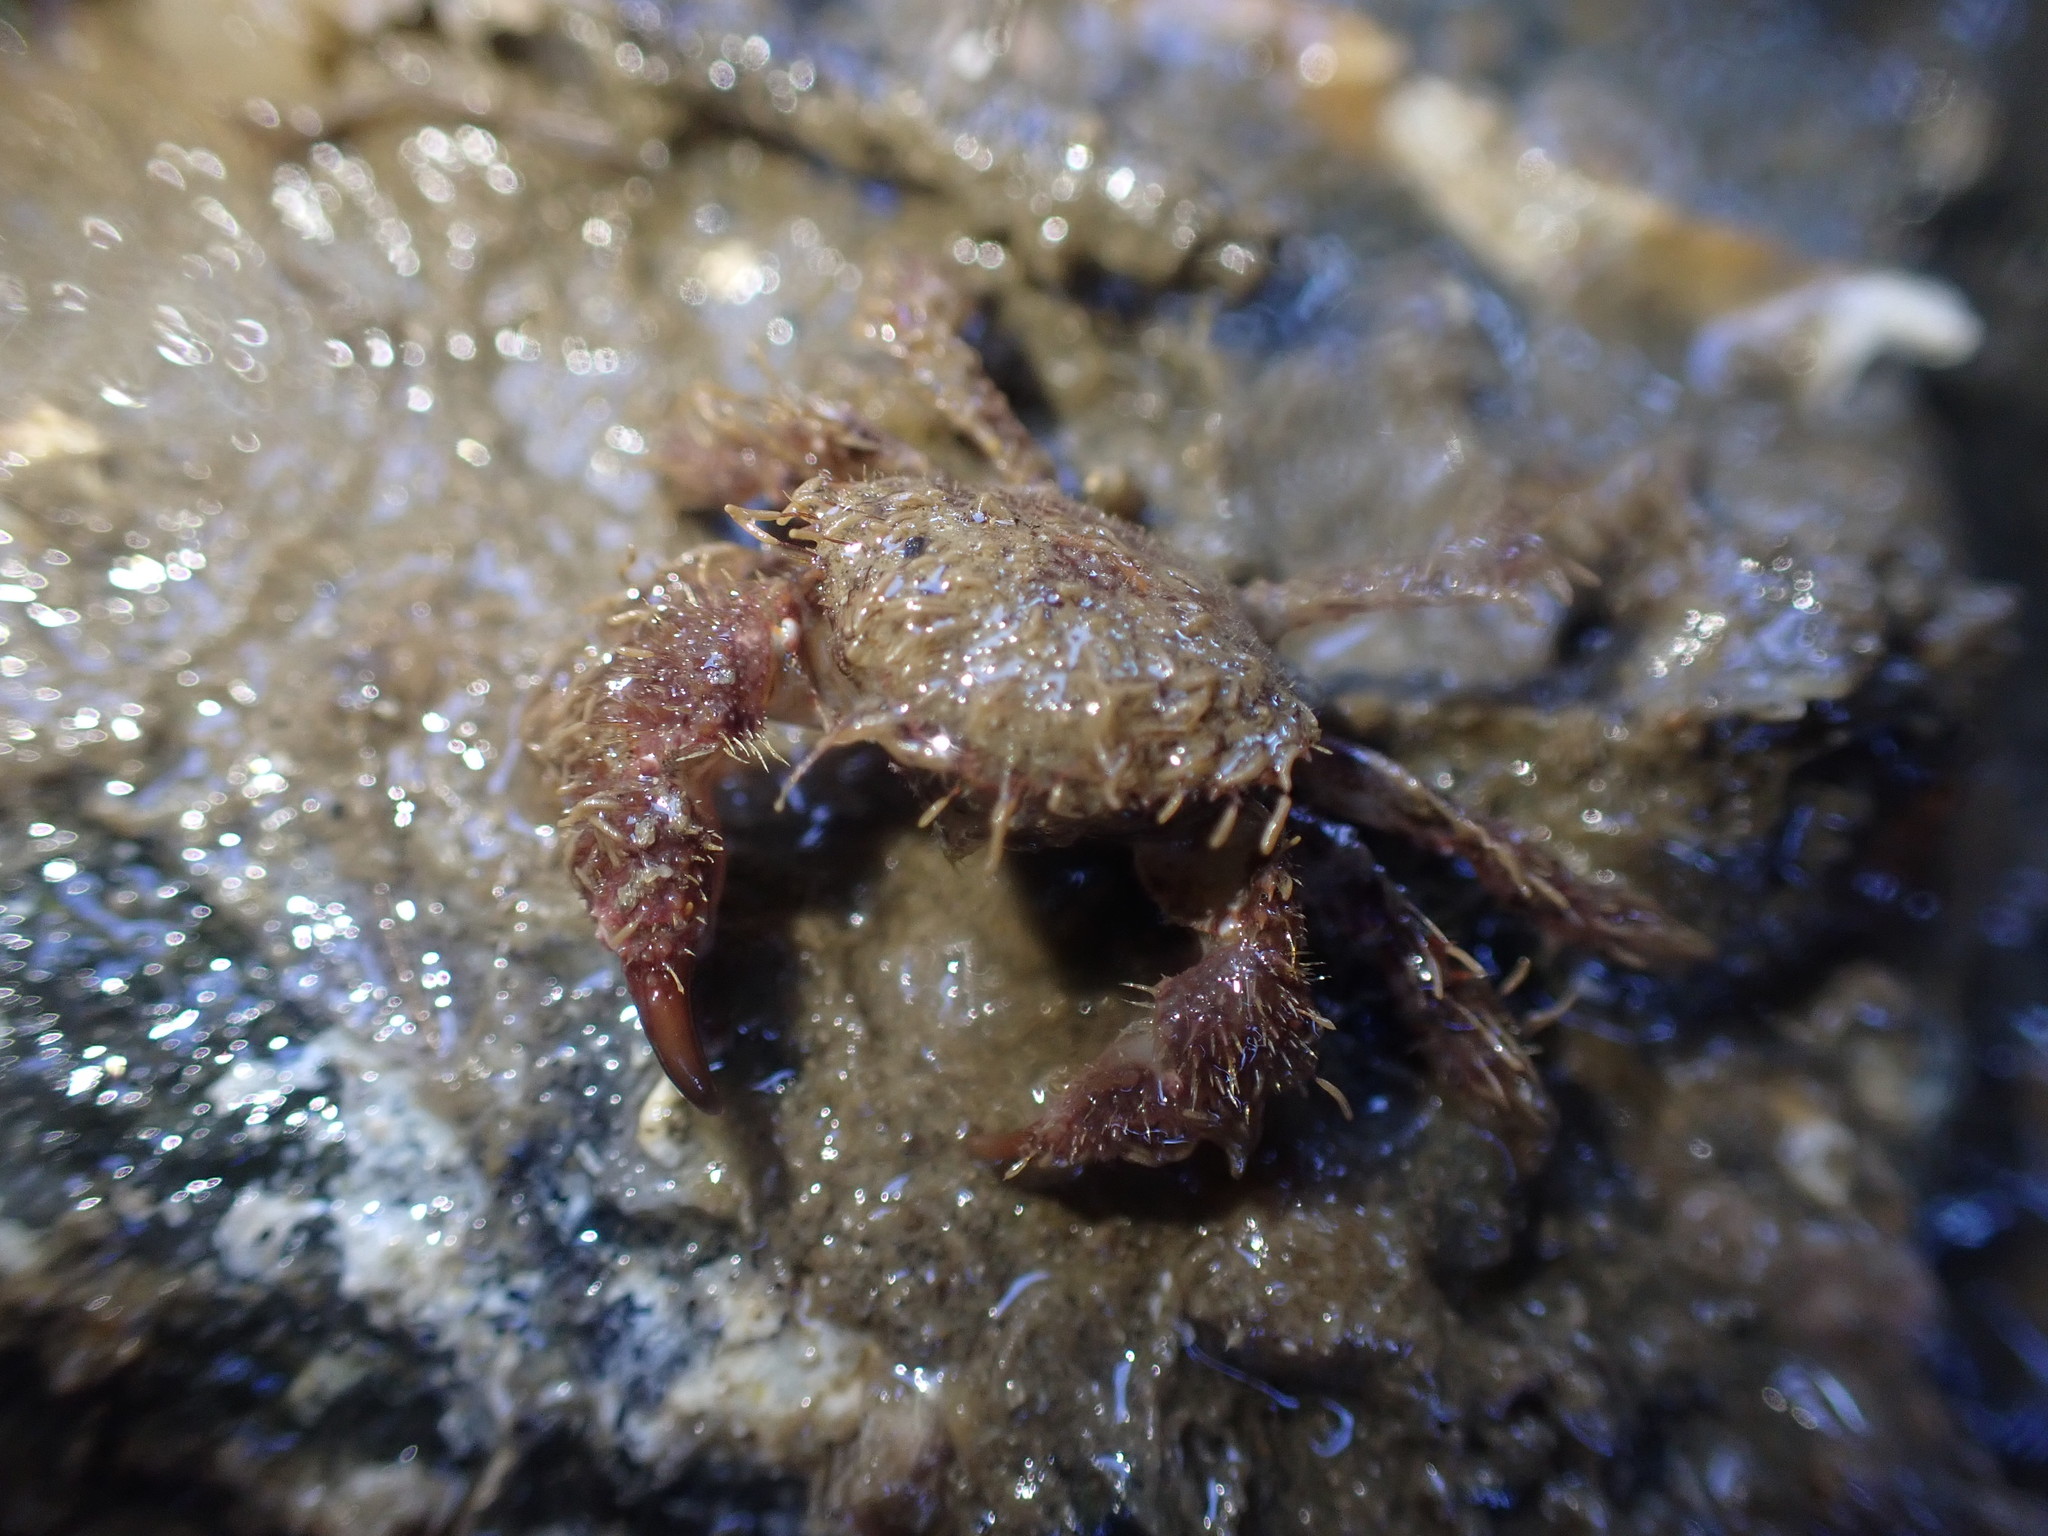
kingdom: Animalia
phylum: Arthropoda
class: Malacostraca
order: Decapoda
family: Pilumnidae
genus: Pilumnus
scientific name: Pilumnus novaezealandiae
